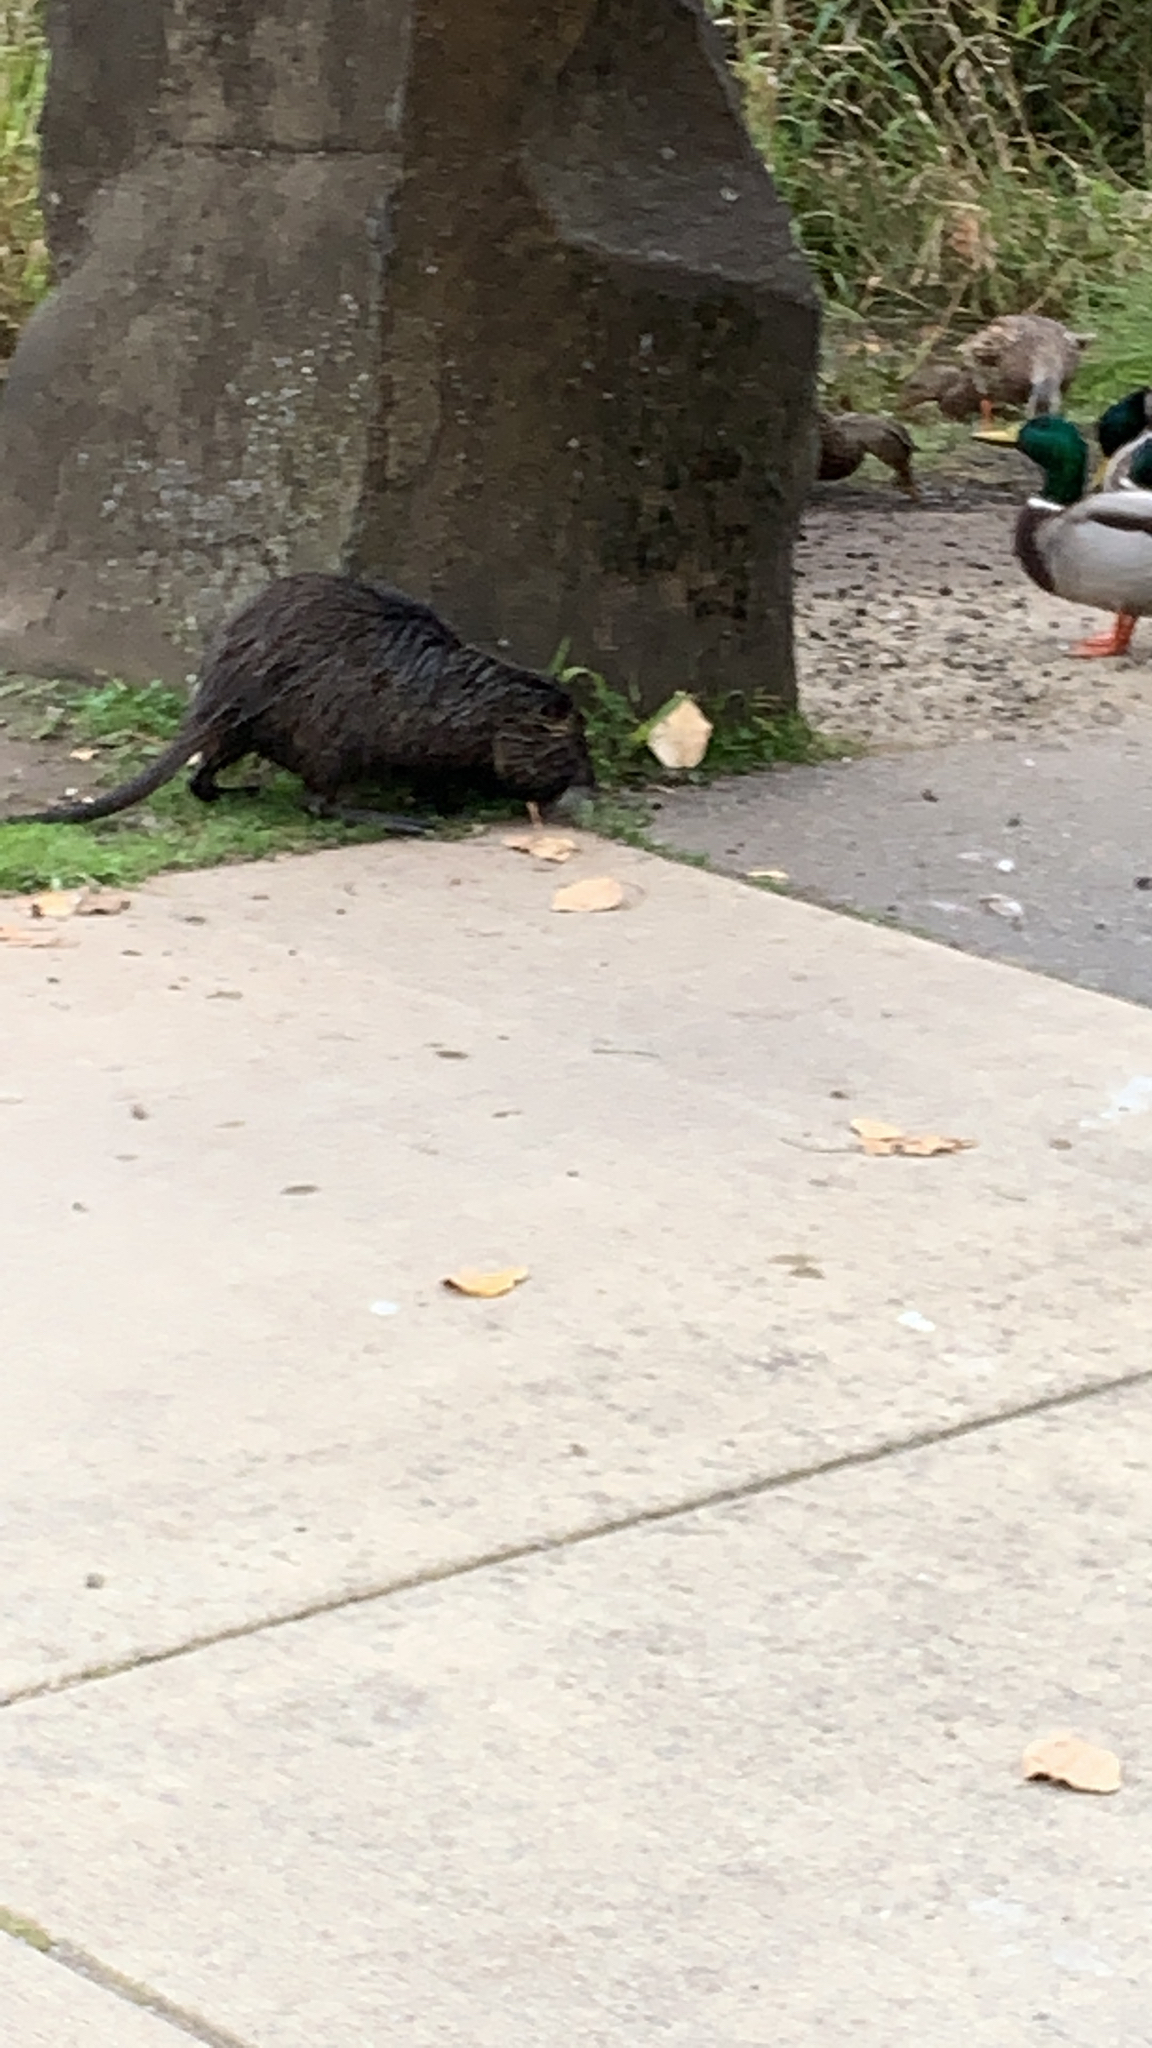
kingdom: Animalia
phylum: Chordata
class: Mammalia
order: Rodentia
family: Myocastoridae
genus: Myocastor
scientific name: Myocastor coypus
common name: Coypu
